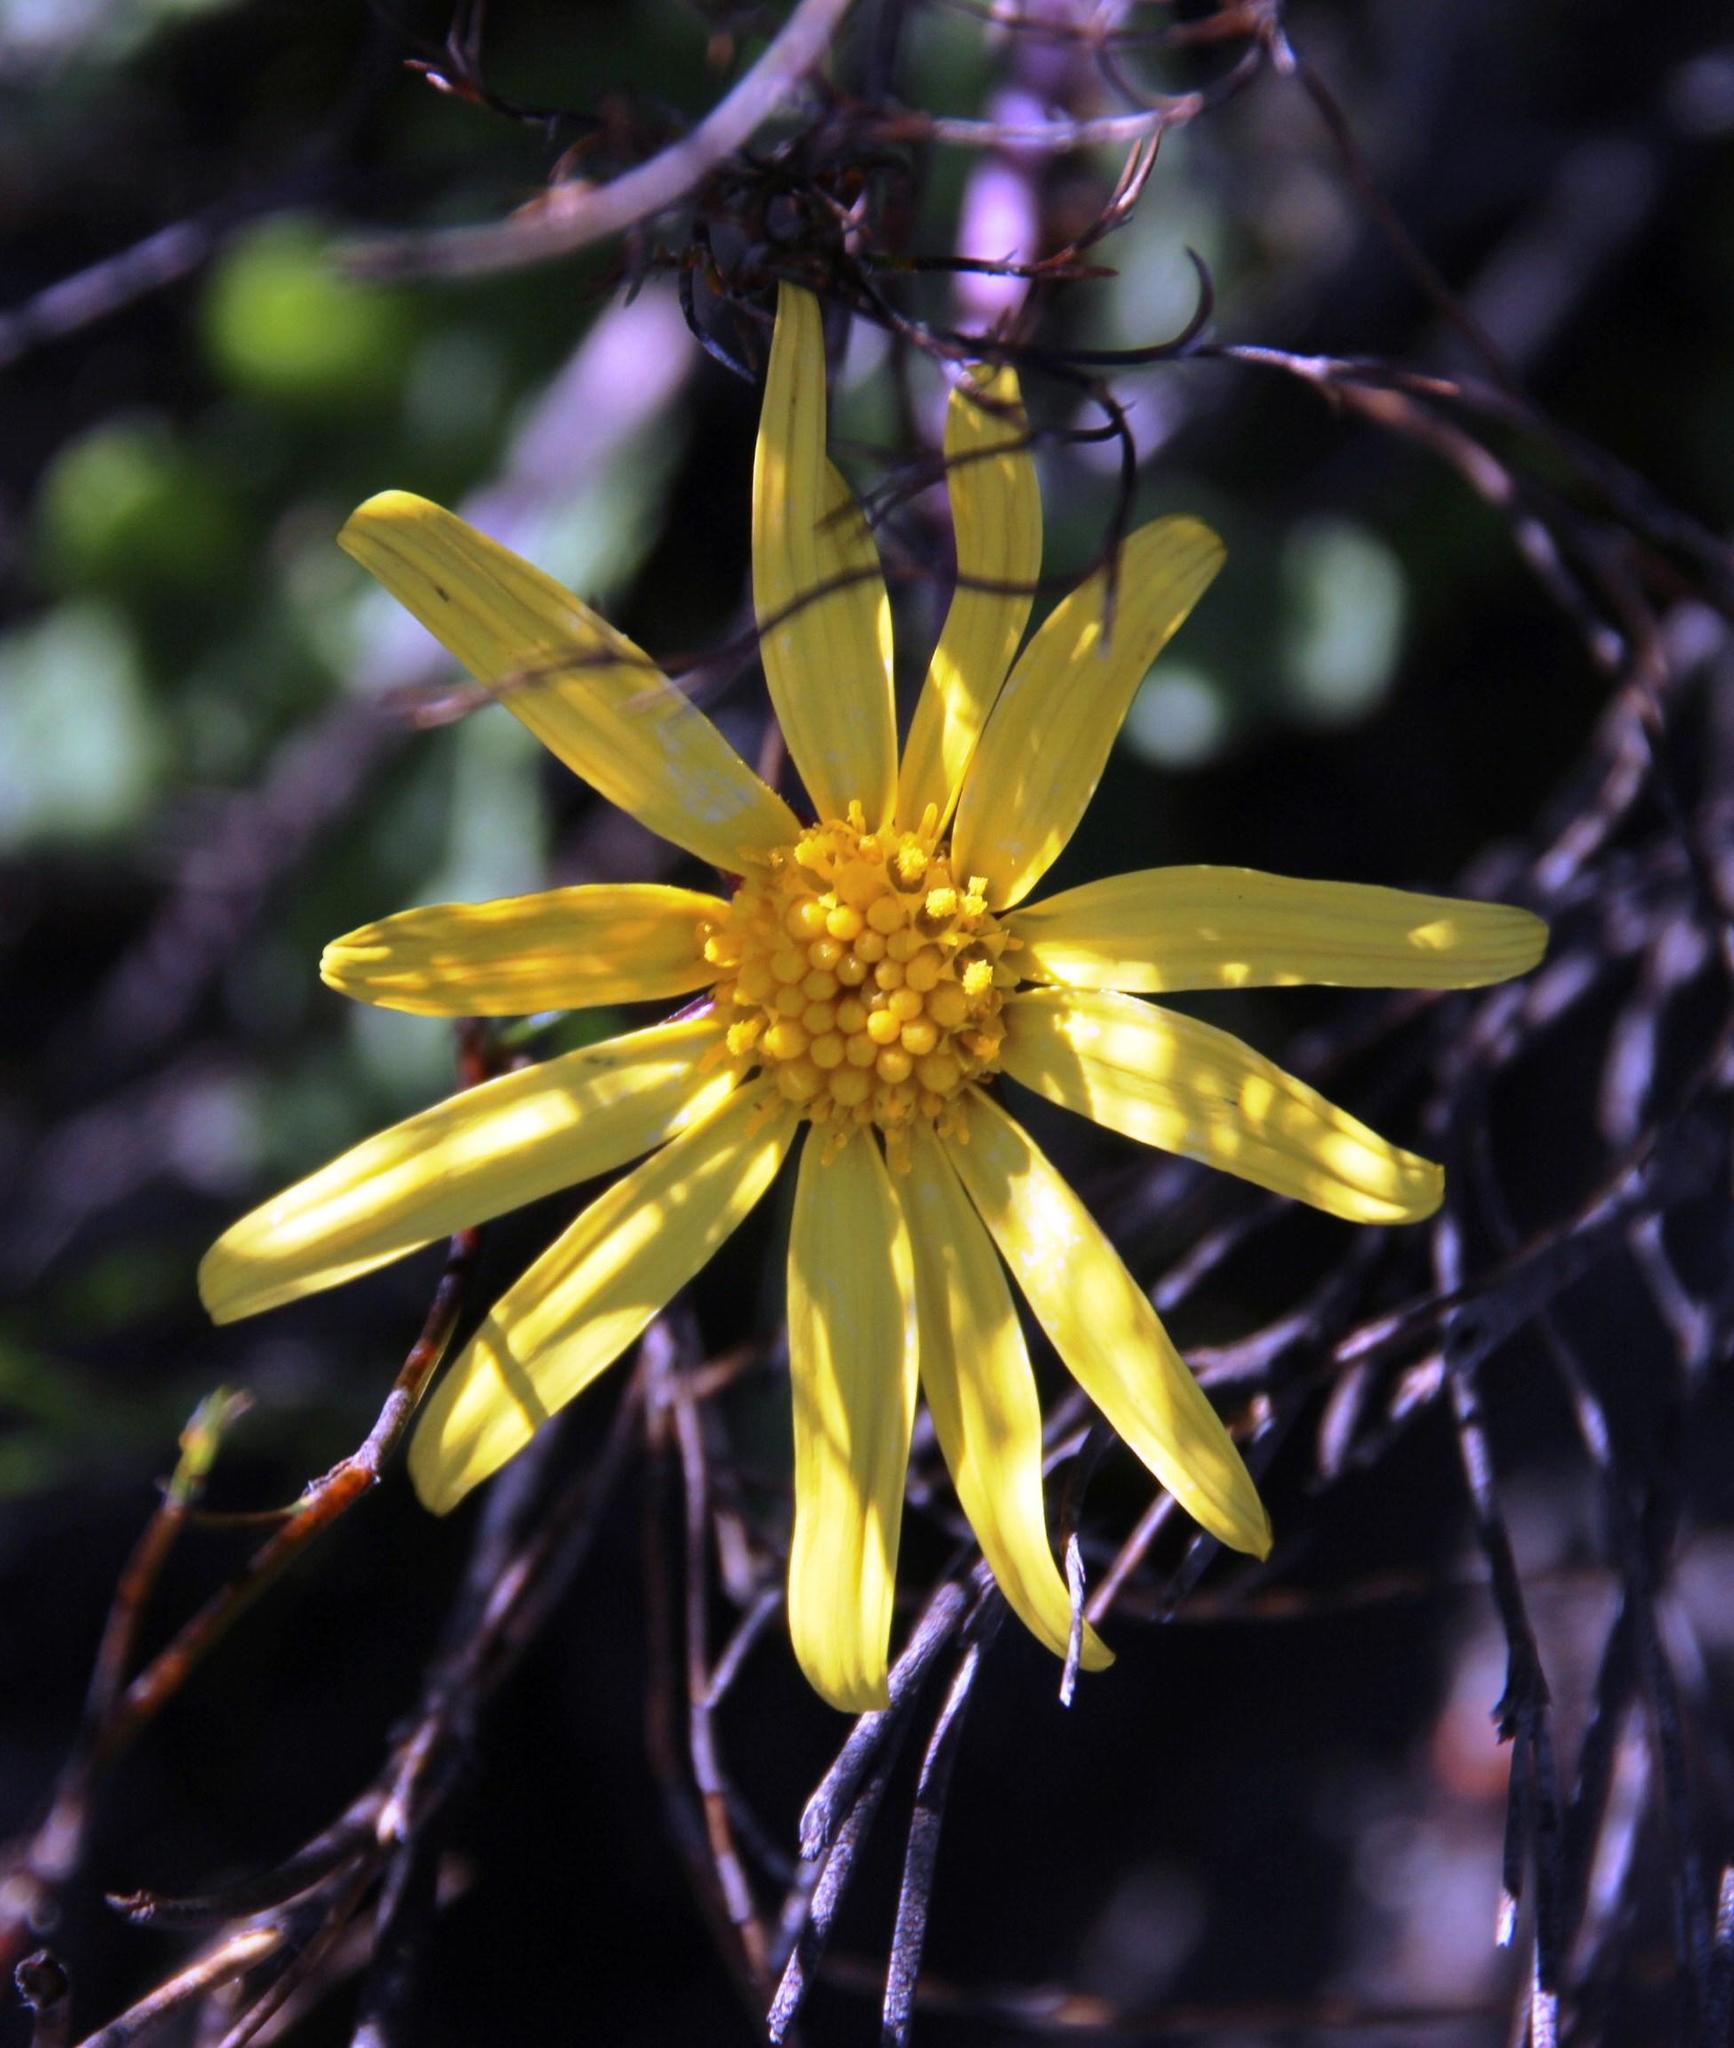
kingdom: Plantae
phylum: Tracheophyta
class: Magnoliopsida
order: Asterales
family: Asteraceae
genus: Othonna
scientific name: Othonna auriculifolia
